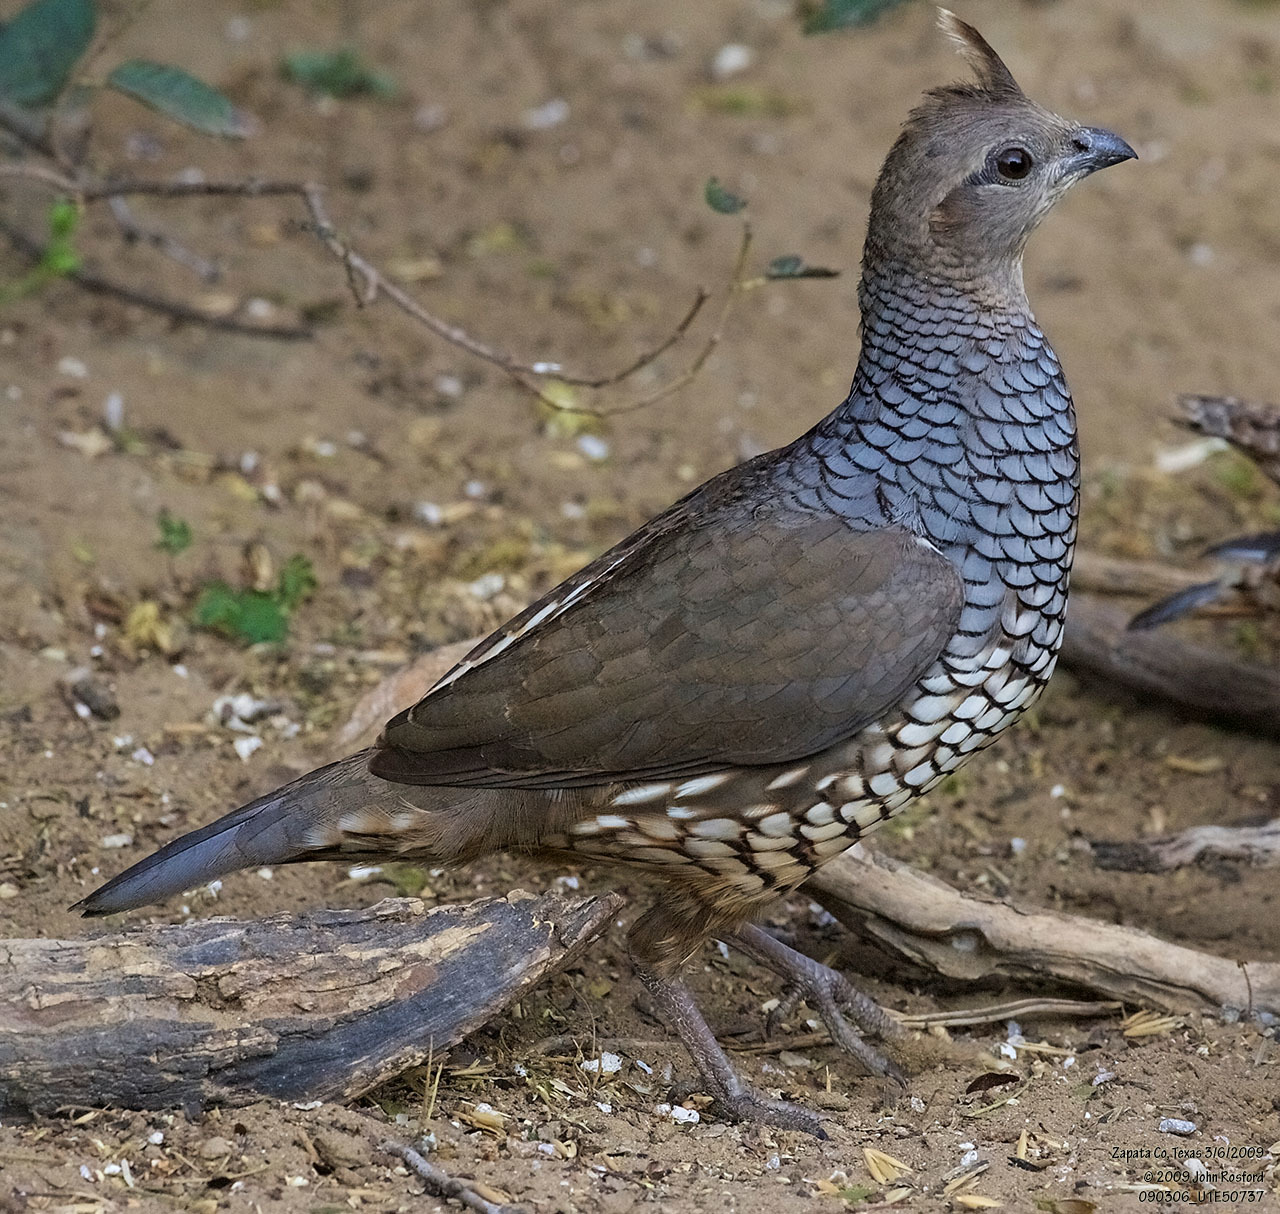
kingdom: Animalia
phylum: Chordata
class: Aves
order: Galliformes
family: Odontophoridae
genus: Callipepla
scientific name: Callipepla squamata
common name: Scaled quail
